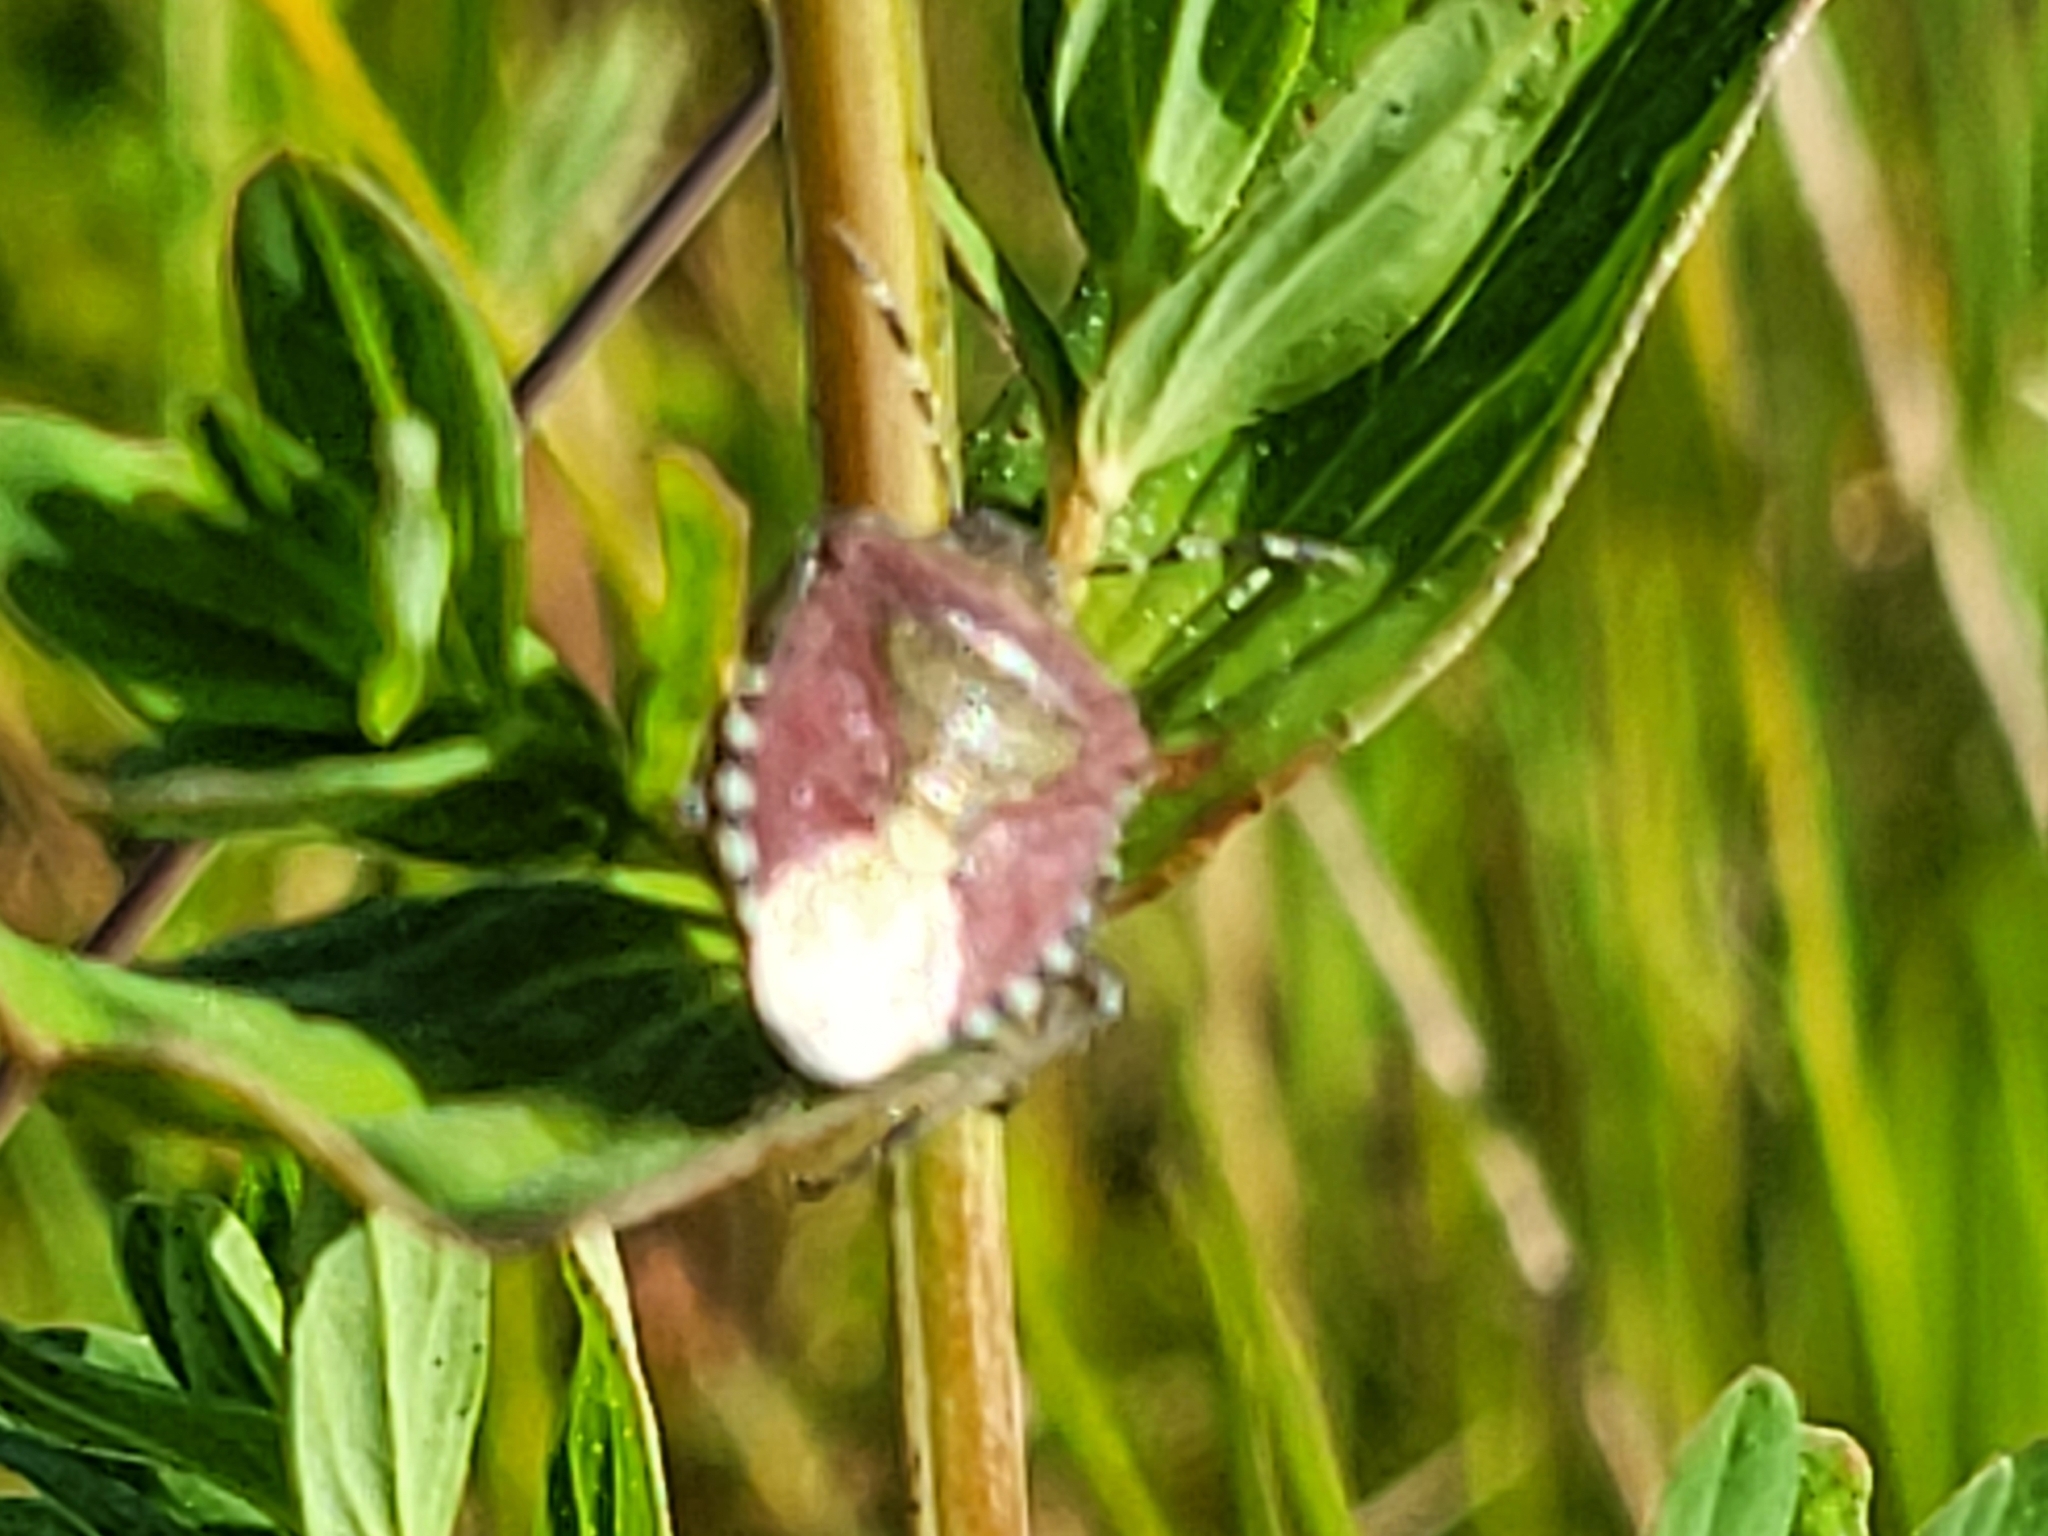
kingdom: Animalia
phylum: Arthropoda
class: Insecta
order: Hemiptera
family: Pentatomidae
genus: Dolycoris
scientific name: Dolycoris baccarum
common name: Sloe bug
